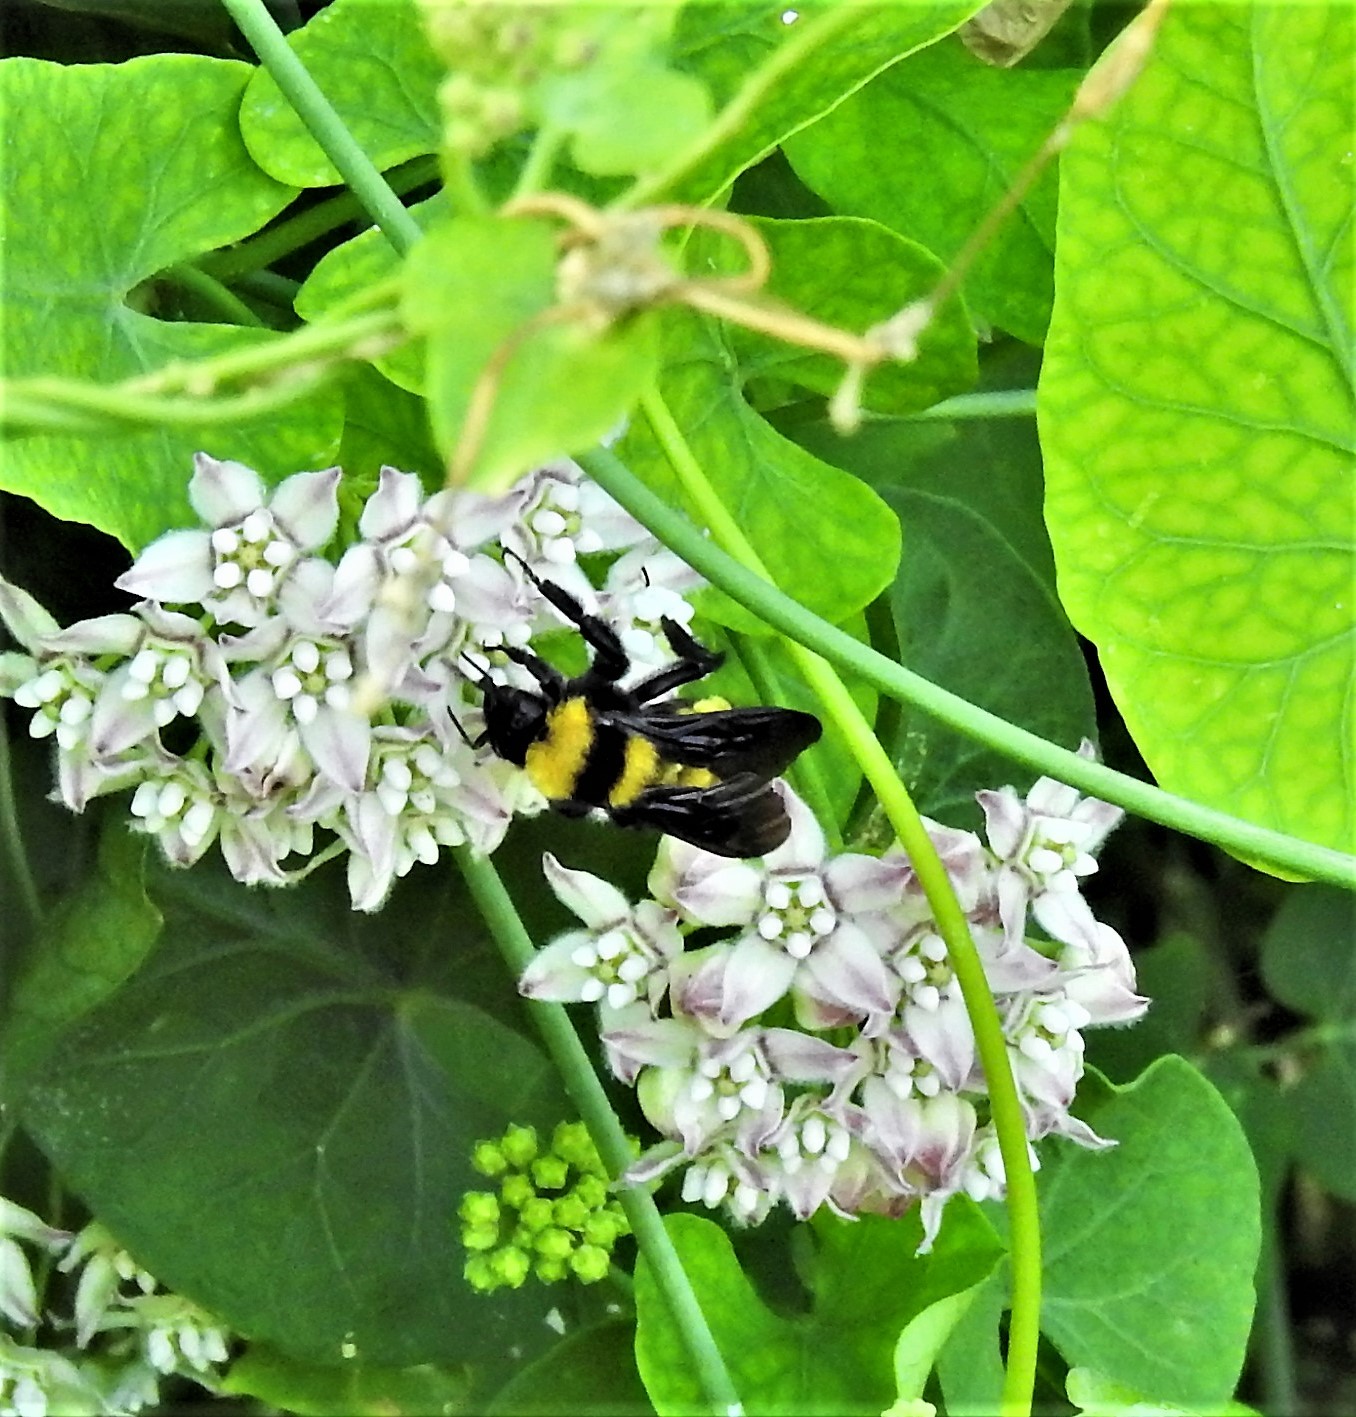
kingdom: Animalia
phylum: Arthropoda
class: Insecta
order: Hymenoptera
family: Apidae
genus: Bombus
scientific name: Bombus sonorus
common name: Sonoran bumble bee
